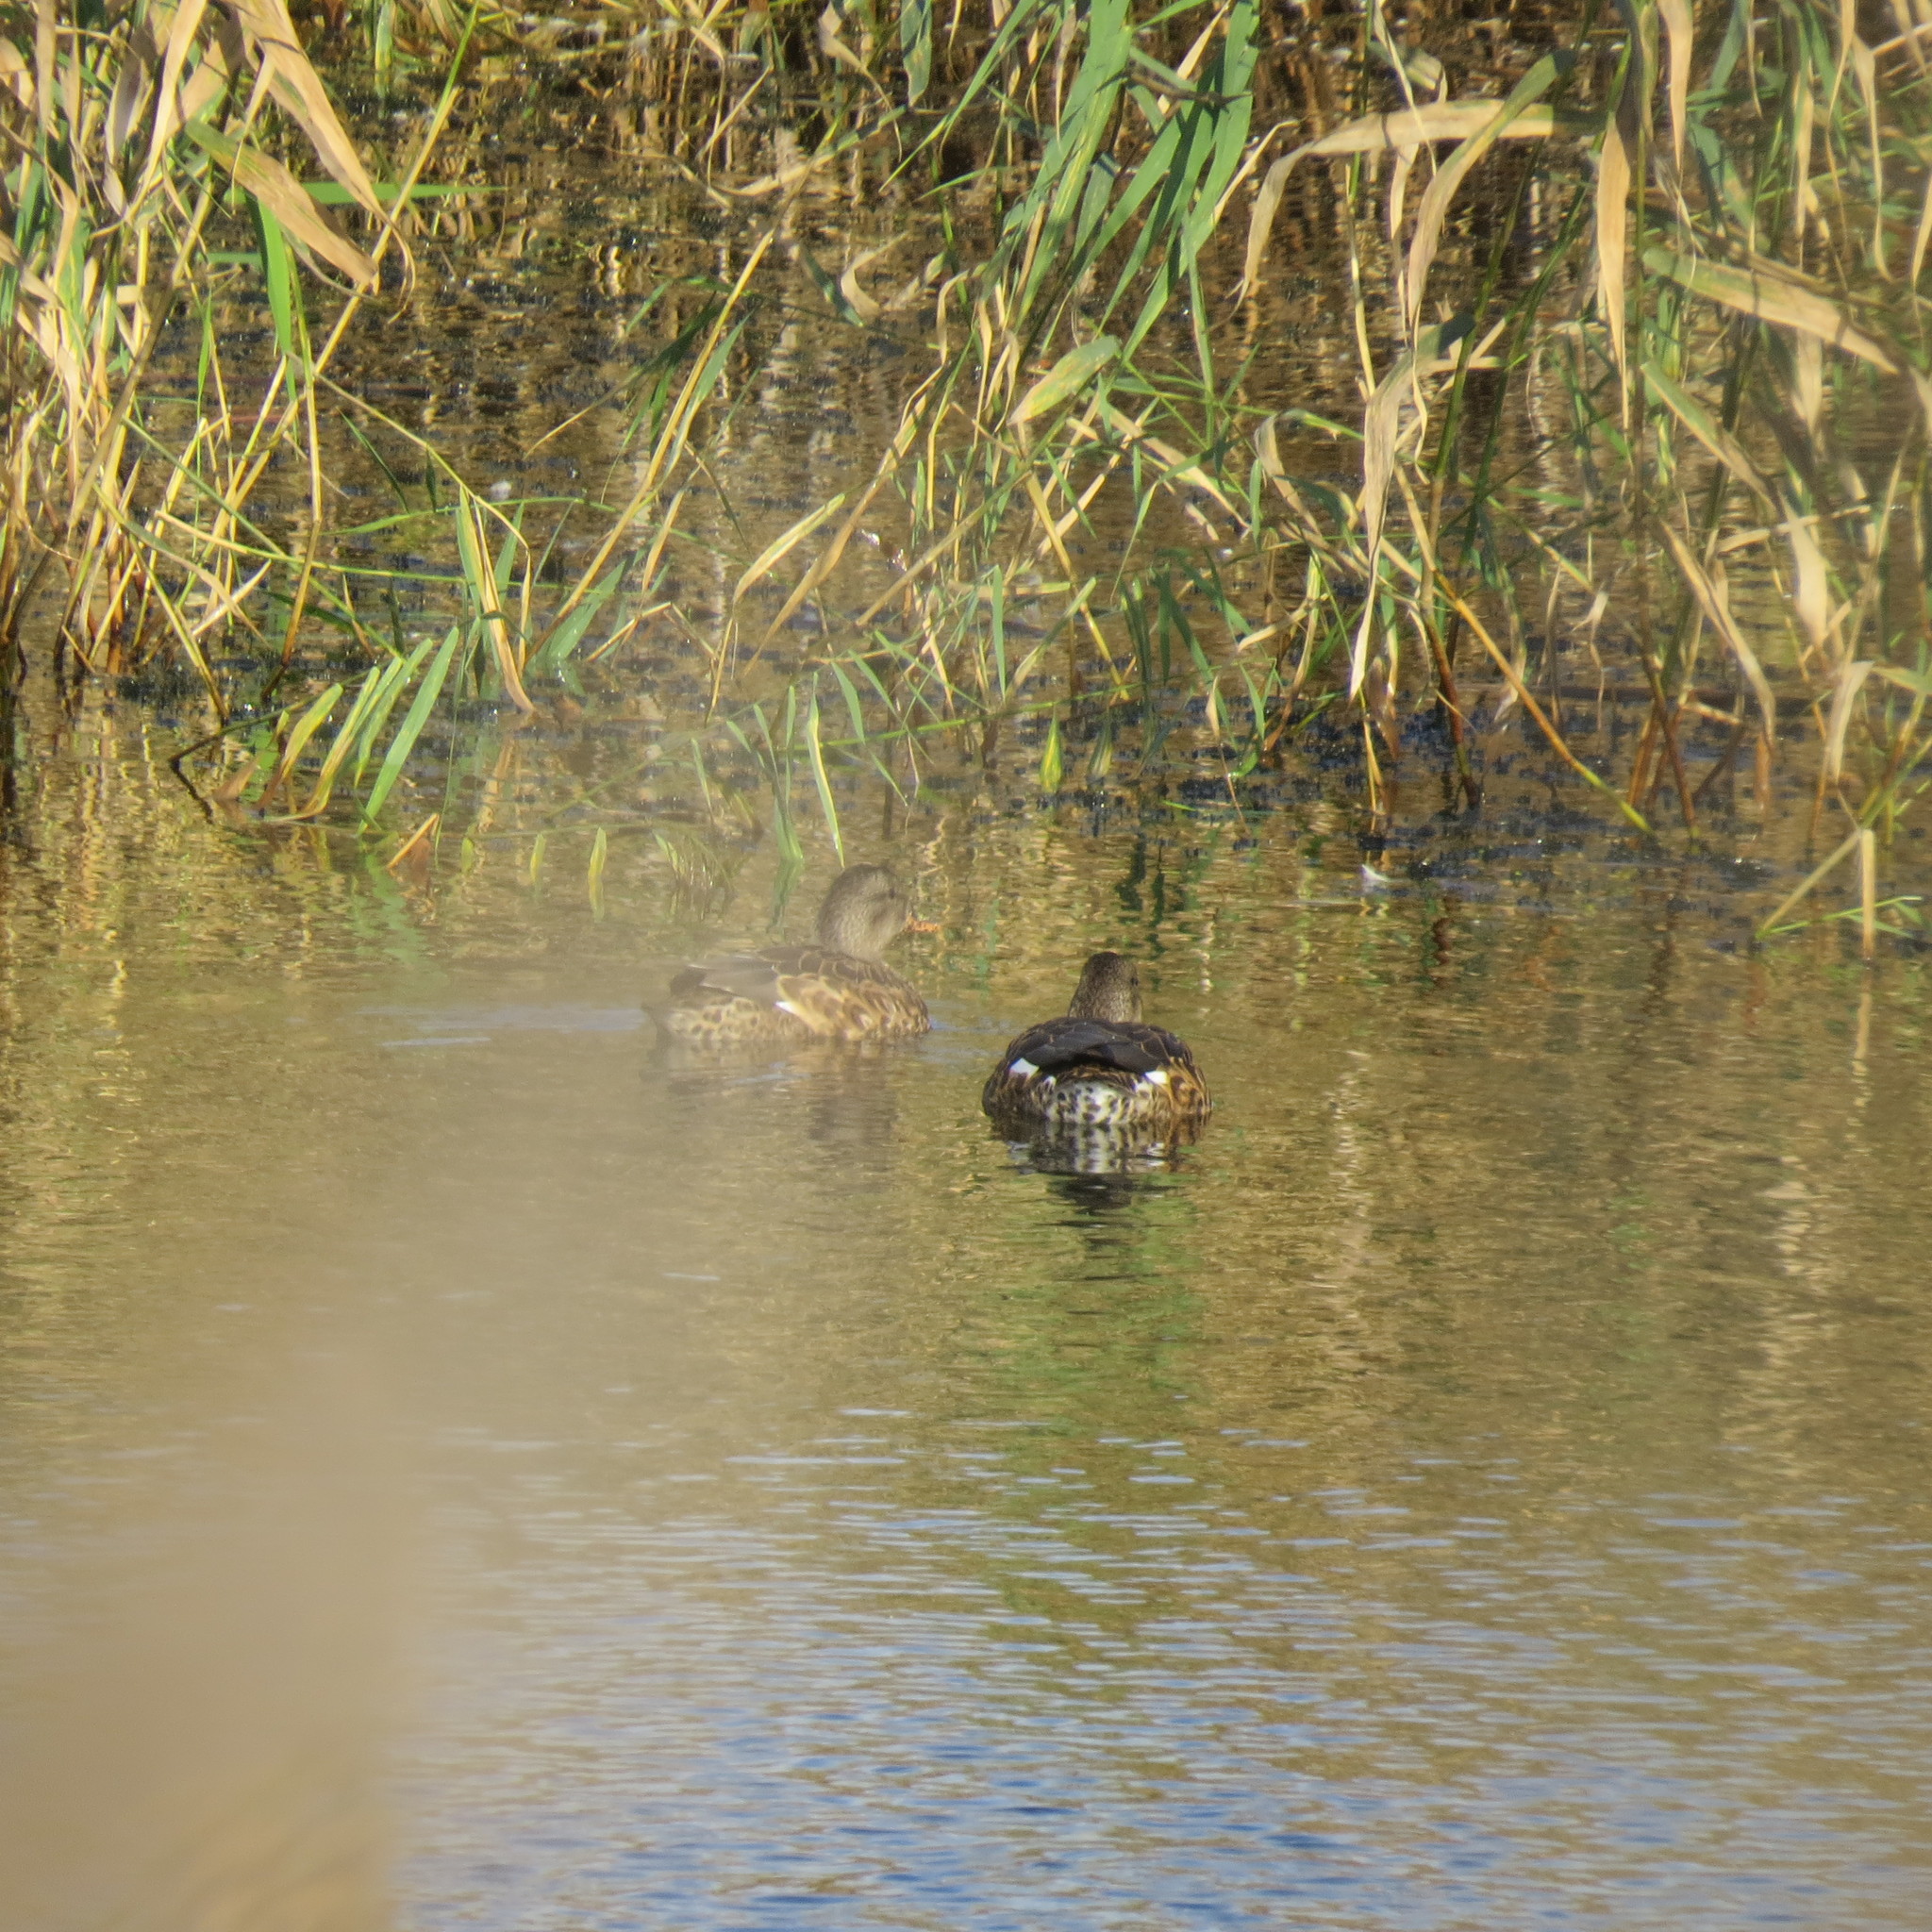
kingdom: Animalia
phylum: Chordata
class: Aves
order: Anseriformes
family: Anatidae
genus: Anas
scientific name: Anas platyrhynchos
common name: Mallard
